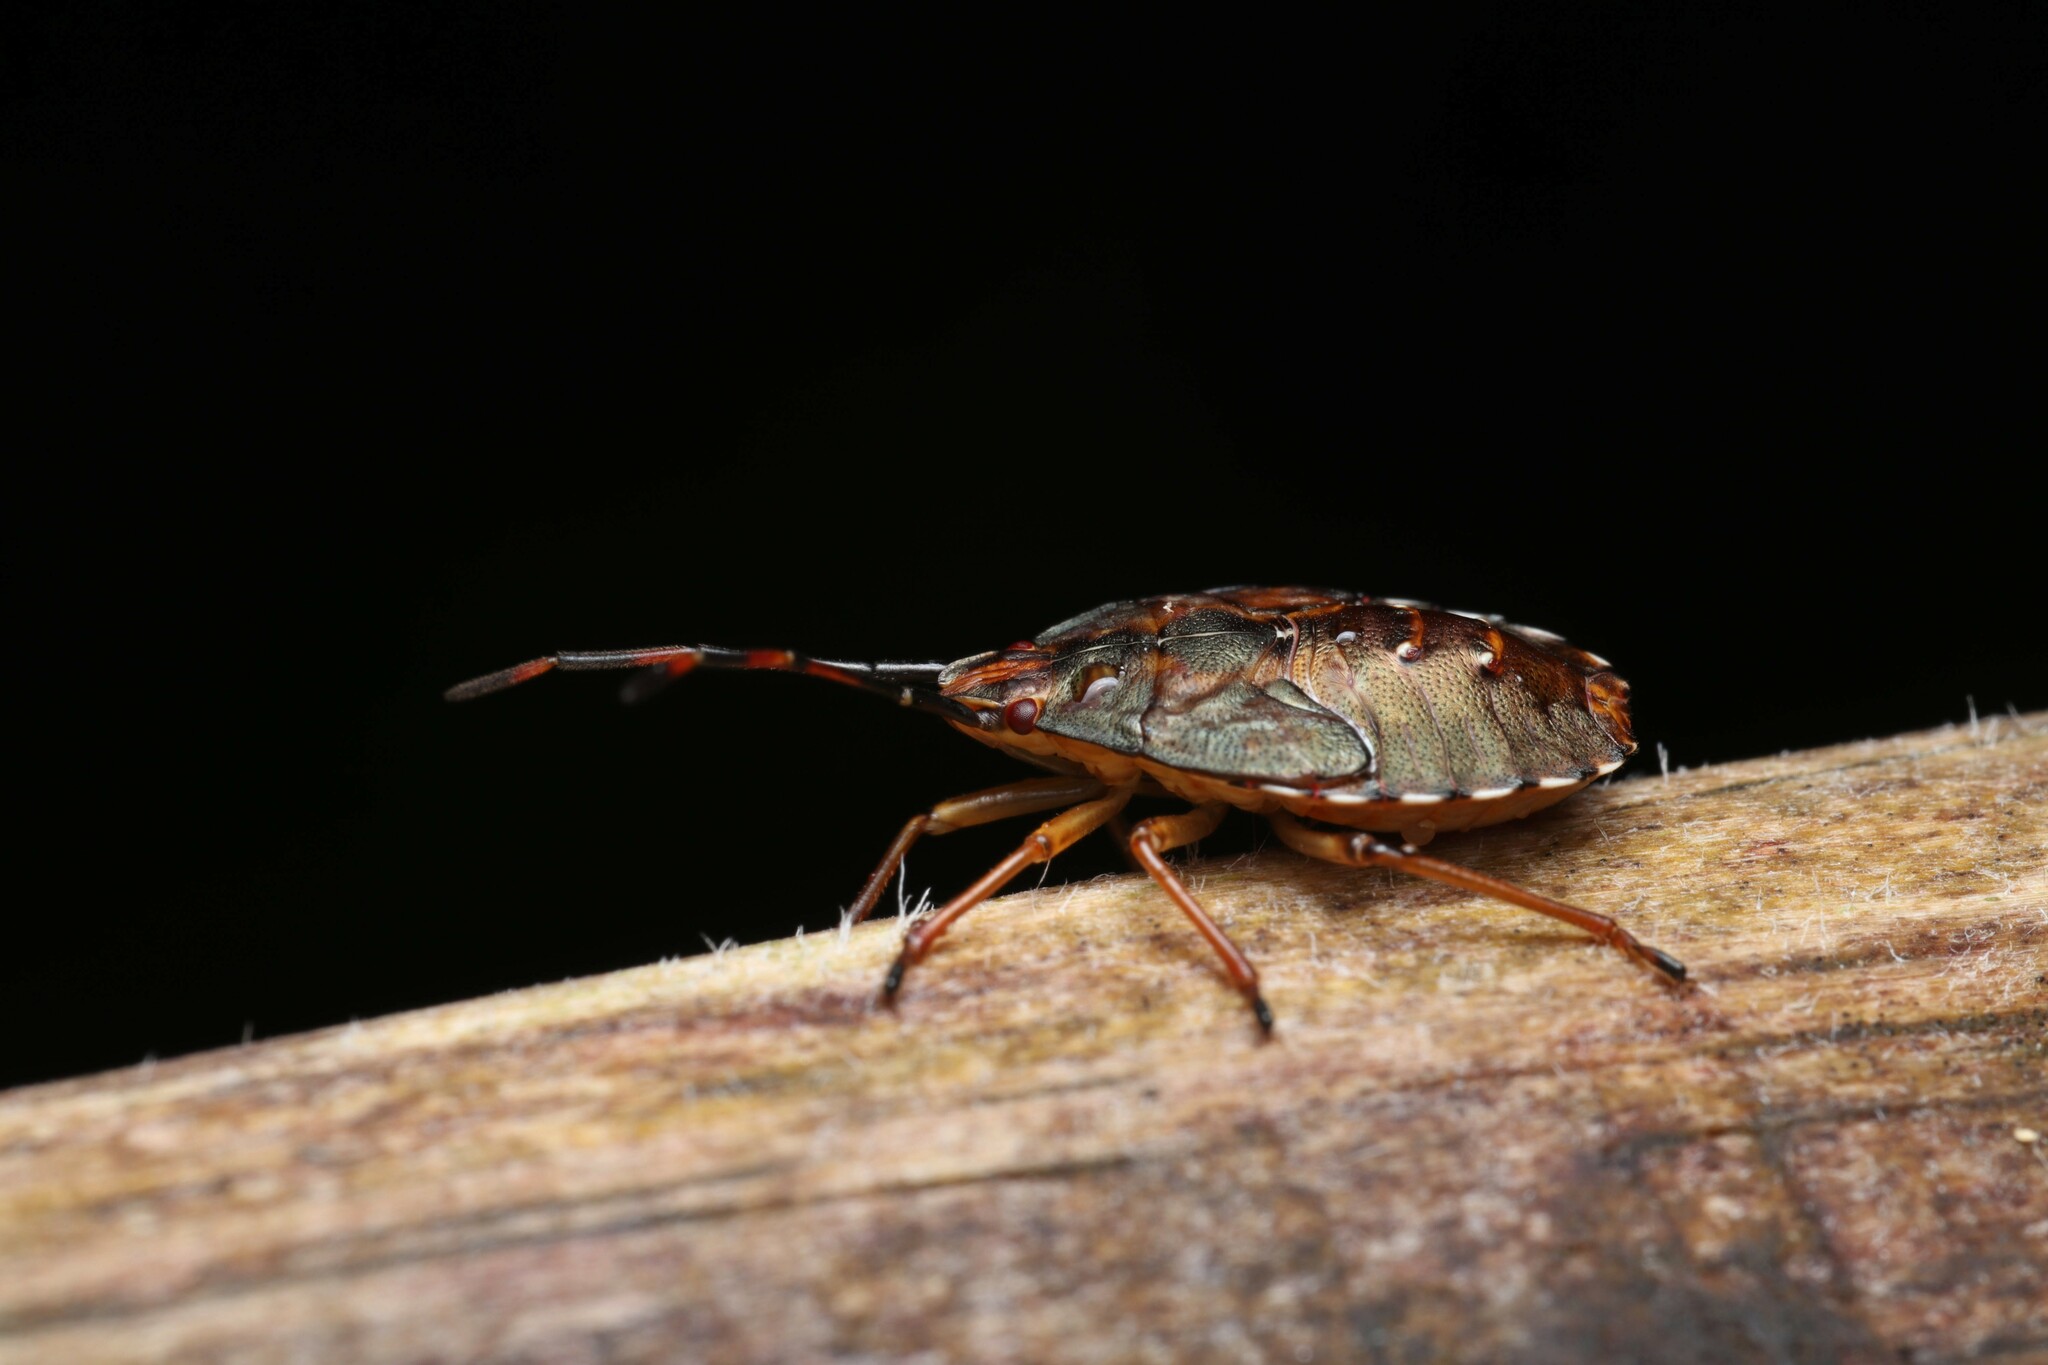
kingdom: Animalia
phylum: Arthropoda
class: Insecta
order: Hemiptera
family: Acanthosomatidae
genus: Planois
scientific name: Planois gayi
